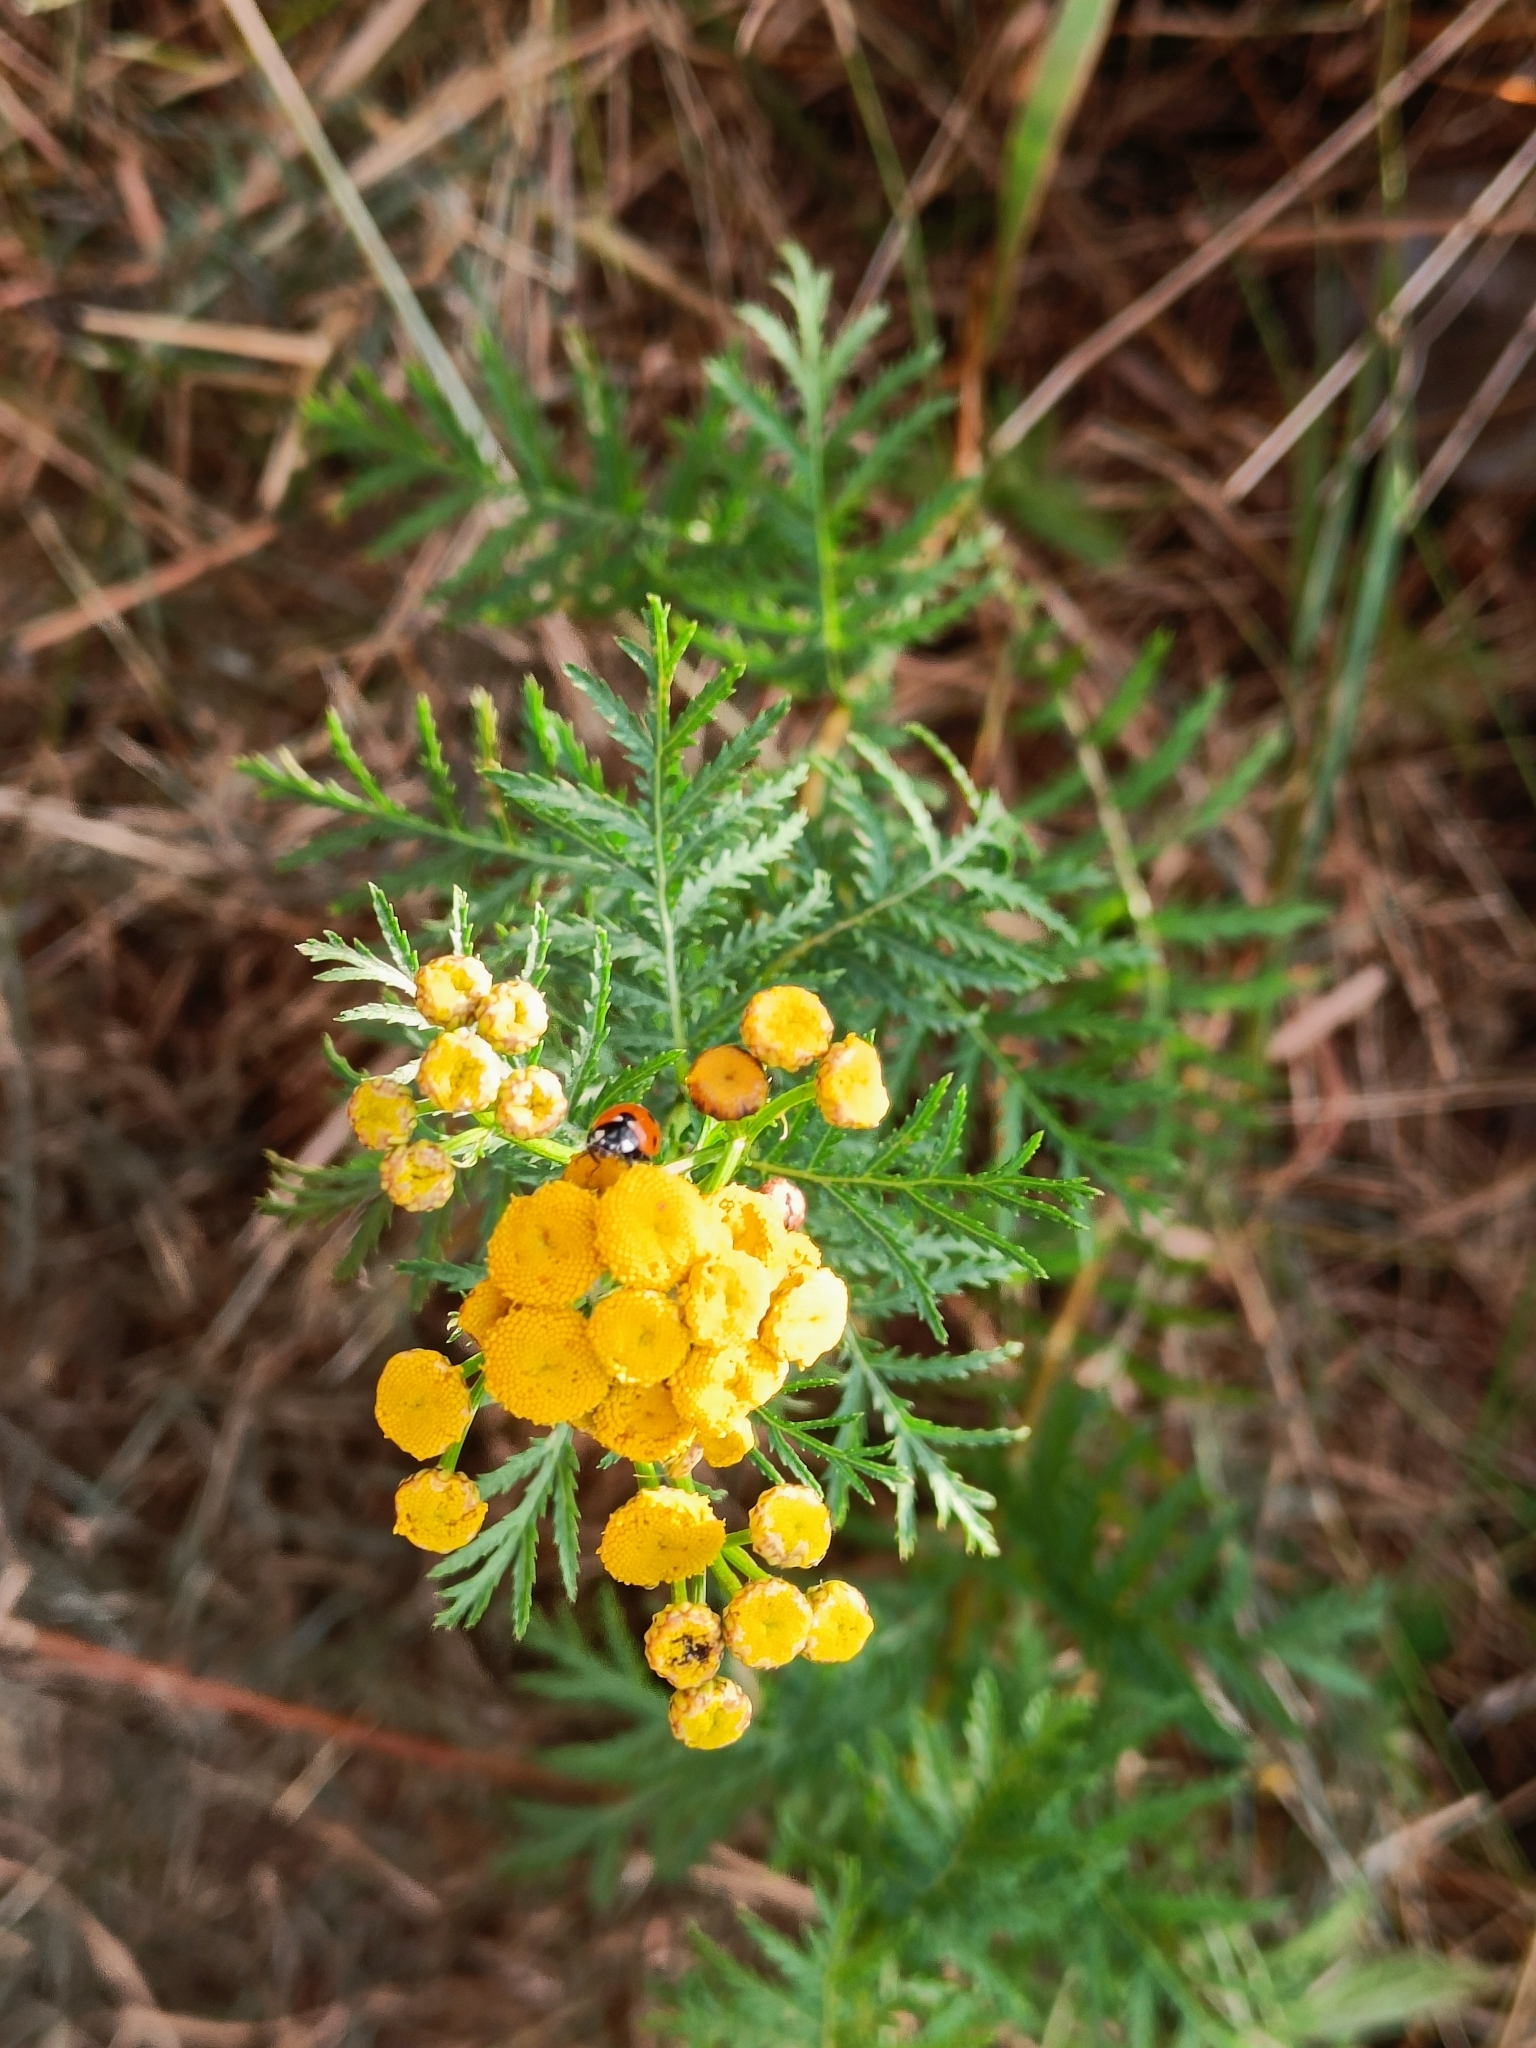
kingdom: Plantae
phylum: Tracheophyta
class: Magnoliopsida
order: Asterales
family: Asteraceae
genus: Tanacetum
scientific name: Tanacetum vulgare
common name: Common tansy
